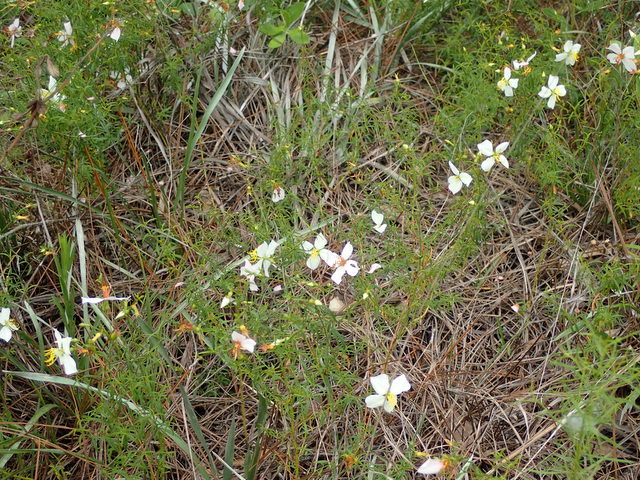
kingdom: Plantae
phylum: Tracheophyta
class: Magnoliopsida
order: Myrtales
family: Melastomataceae
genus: Rhexia
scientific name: Rhexia mariana
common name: Dull meadow-pitcher
